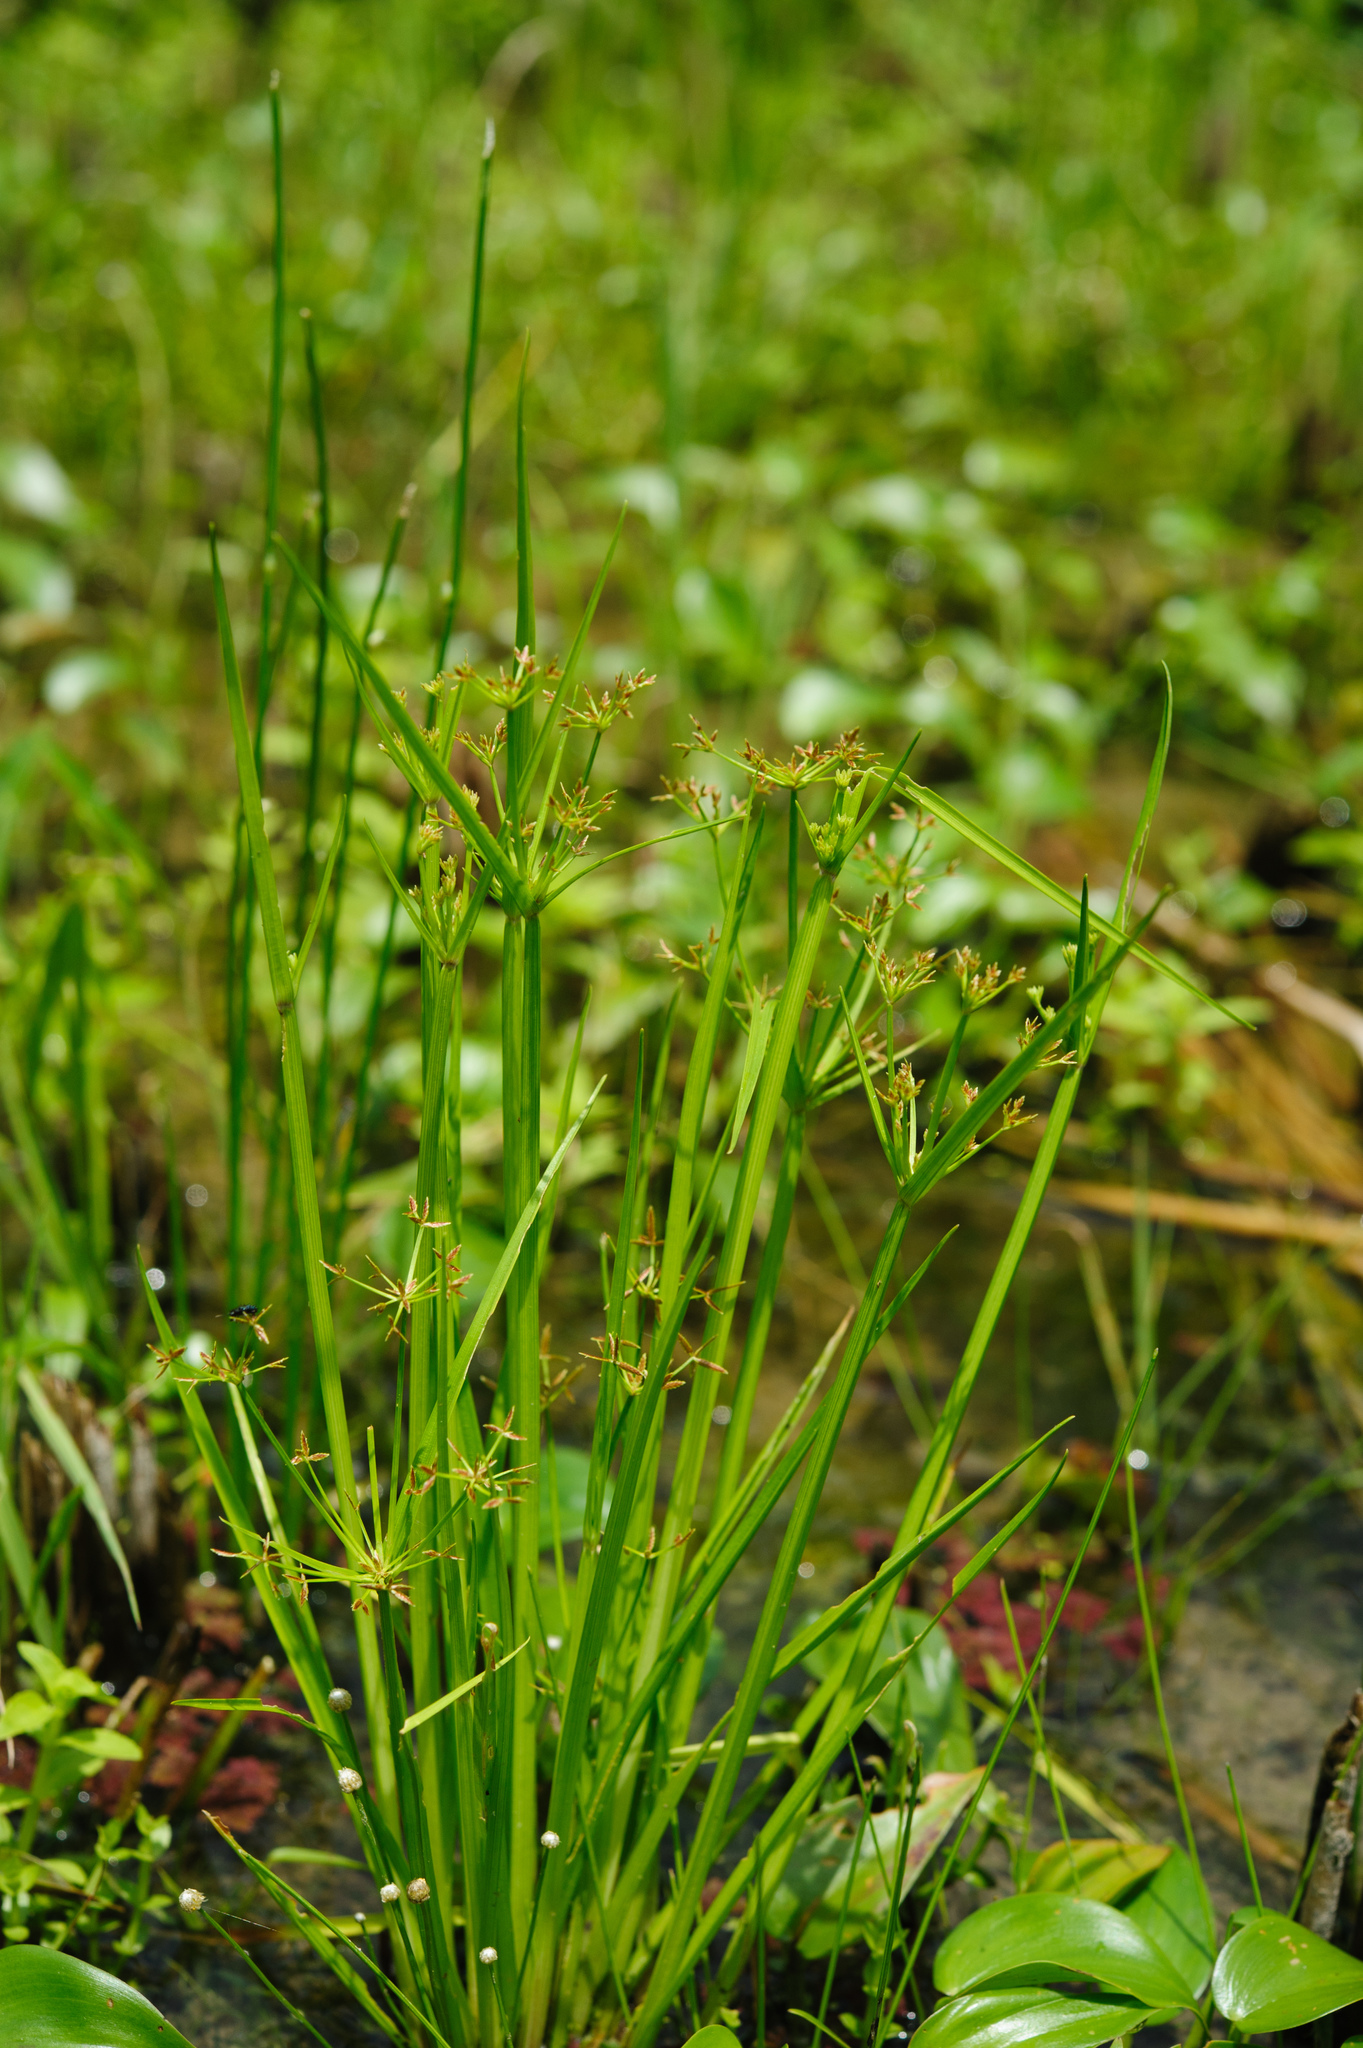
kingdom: Plantae
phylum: Tracheophyta
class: Liliopsida
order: Poales
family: Cyperaceae
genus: Cyperus
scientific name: Cyperus haspan
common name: Haspan flatsedge
